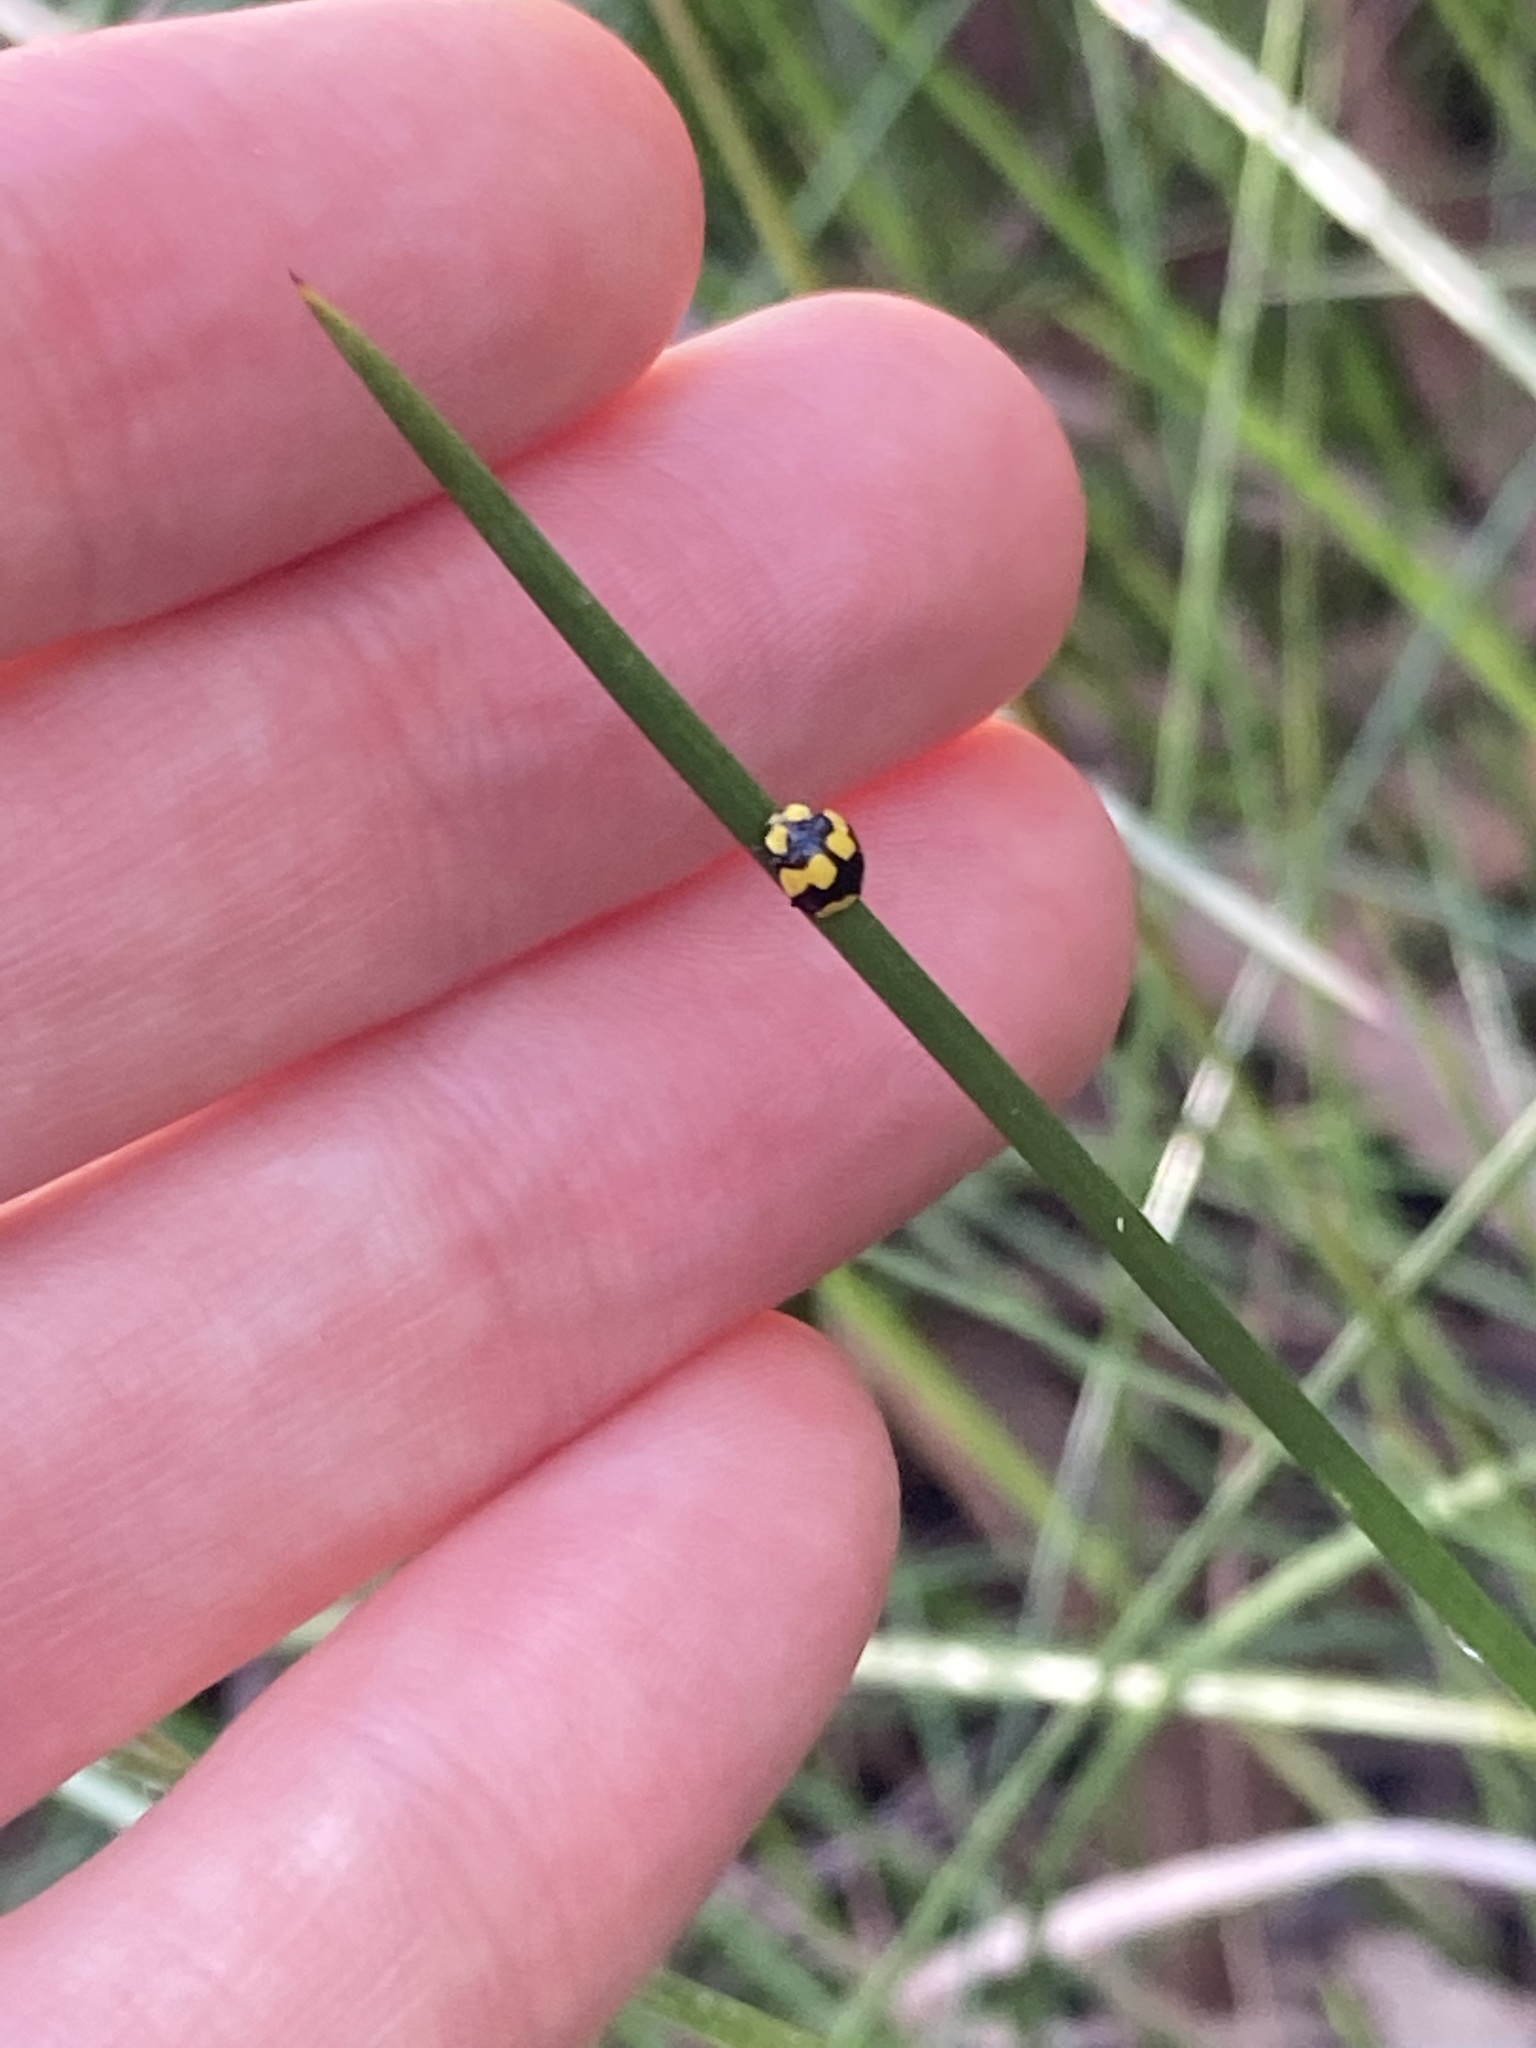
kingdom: Animalia
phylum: Arthropoda
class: Insecta
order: Coleoptera
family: Coccinellidae
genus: Illeis
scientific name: Illeis galbula
